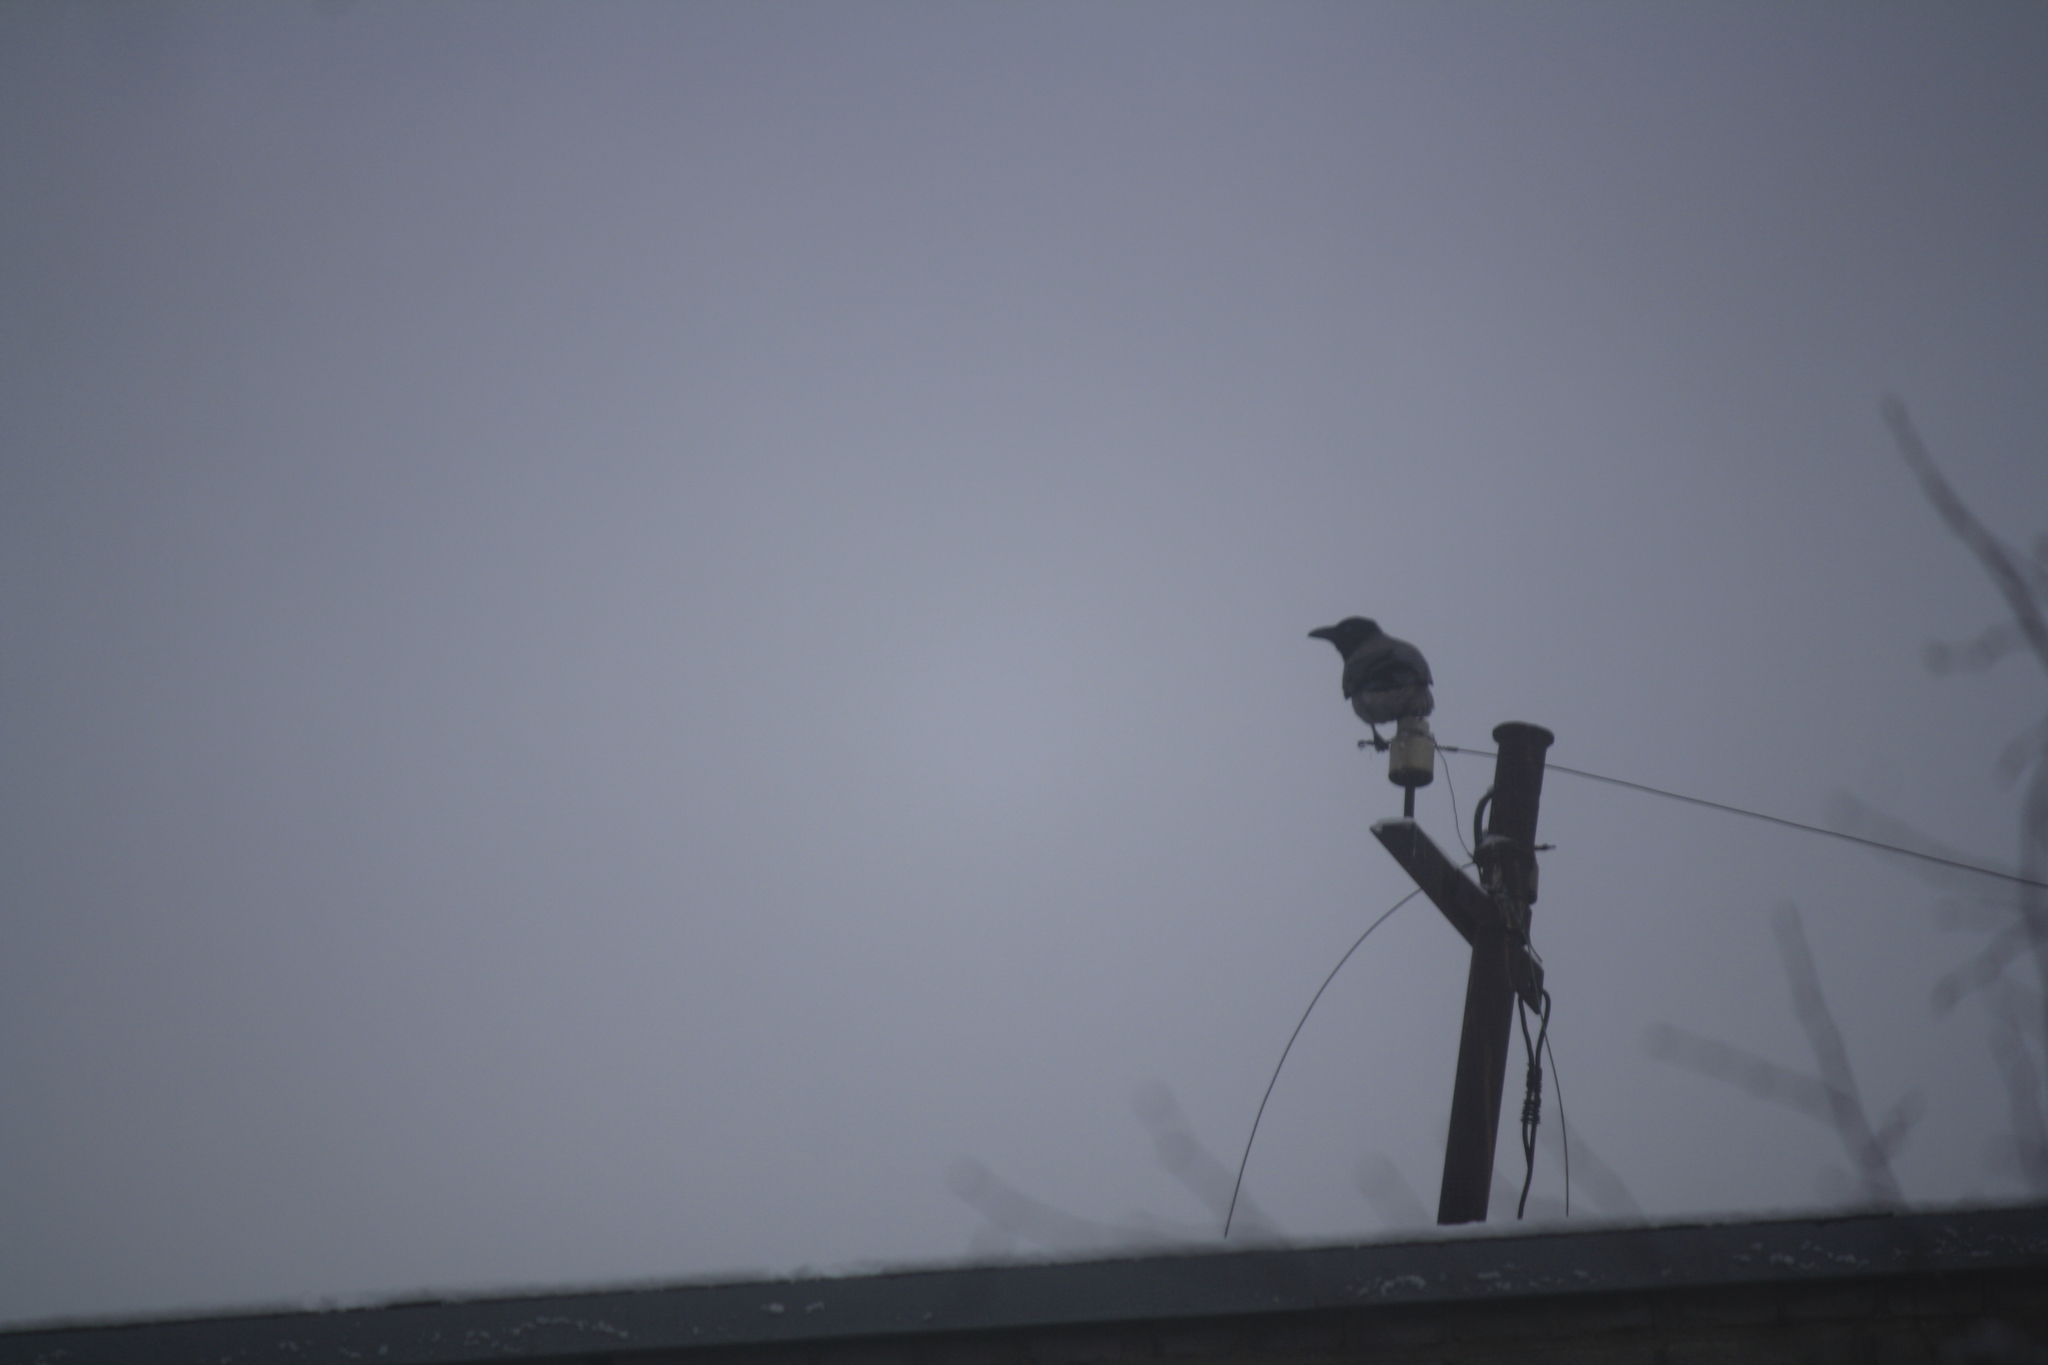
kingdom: Animalia
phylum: Chordata
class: Aves
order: Passeriformes
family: Corvidae
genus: Corvus
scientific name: Corvus cornix
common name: Hooded crow
